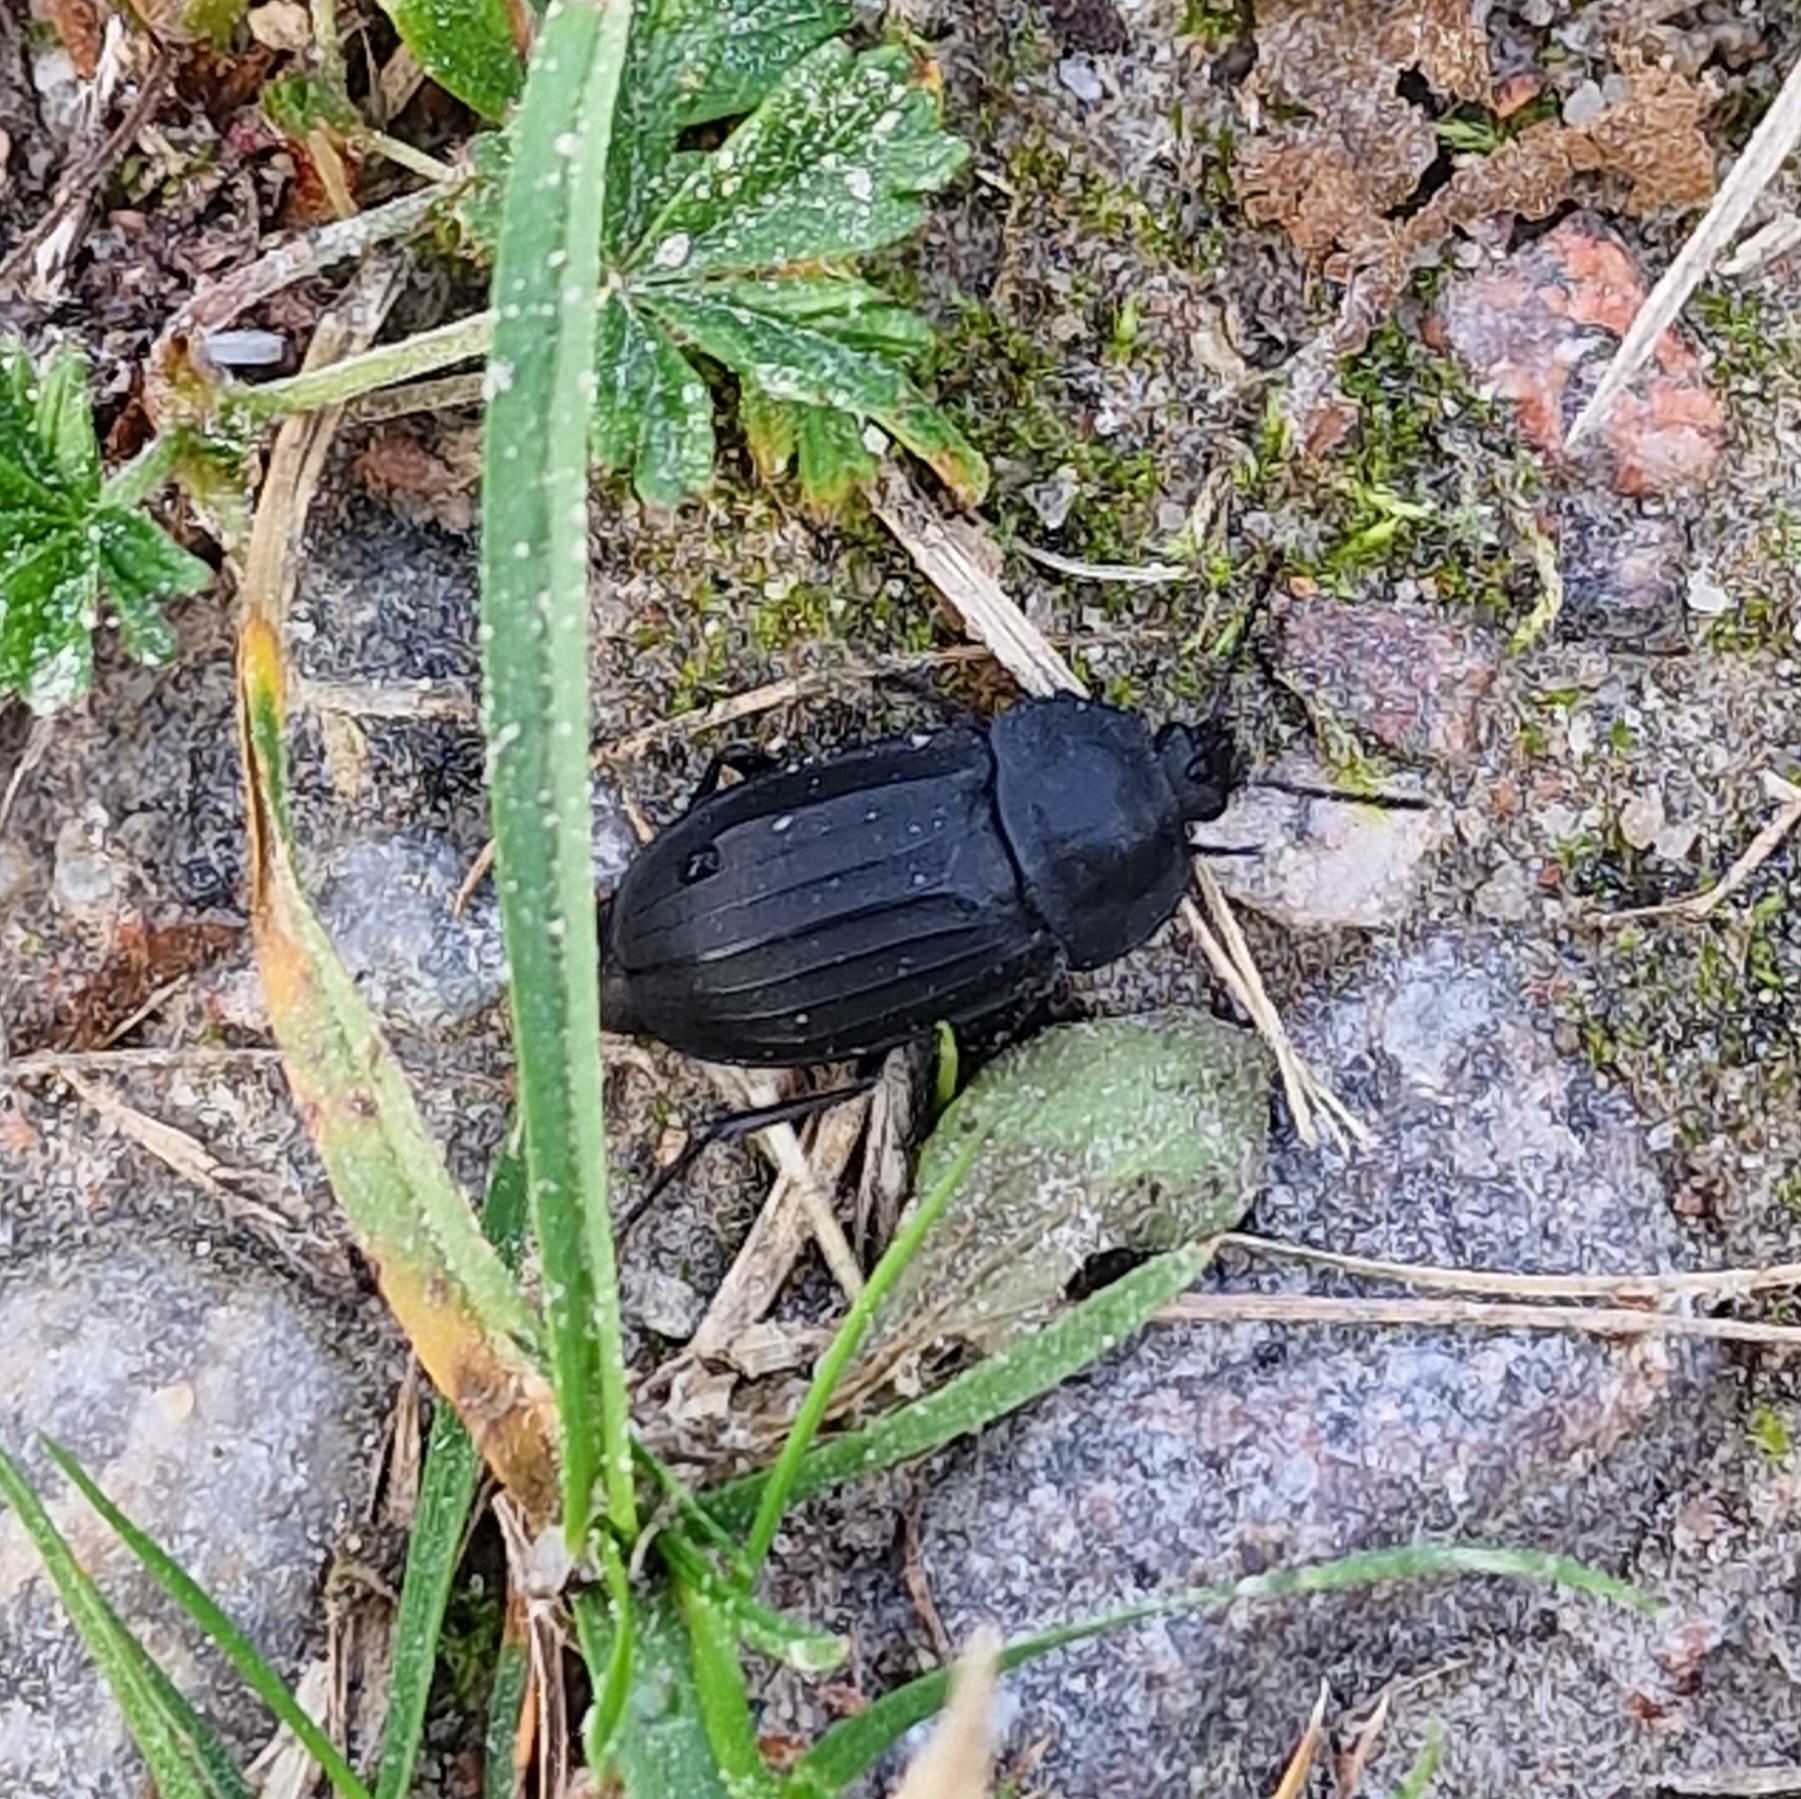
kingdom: Animalia
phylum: Arthropoda
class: Insecta
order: Coleoptera
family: Staphylinidae
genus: Silpha
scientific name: Silpha tristis
